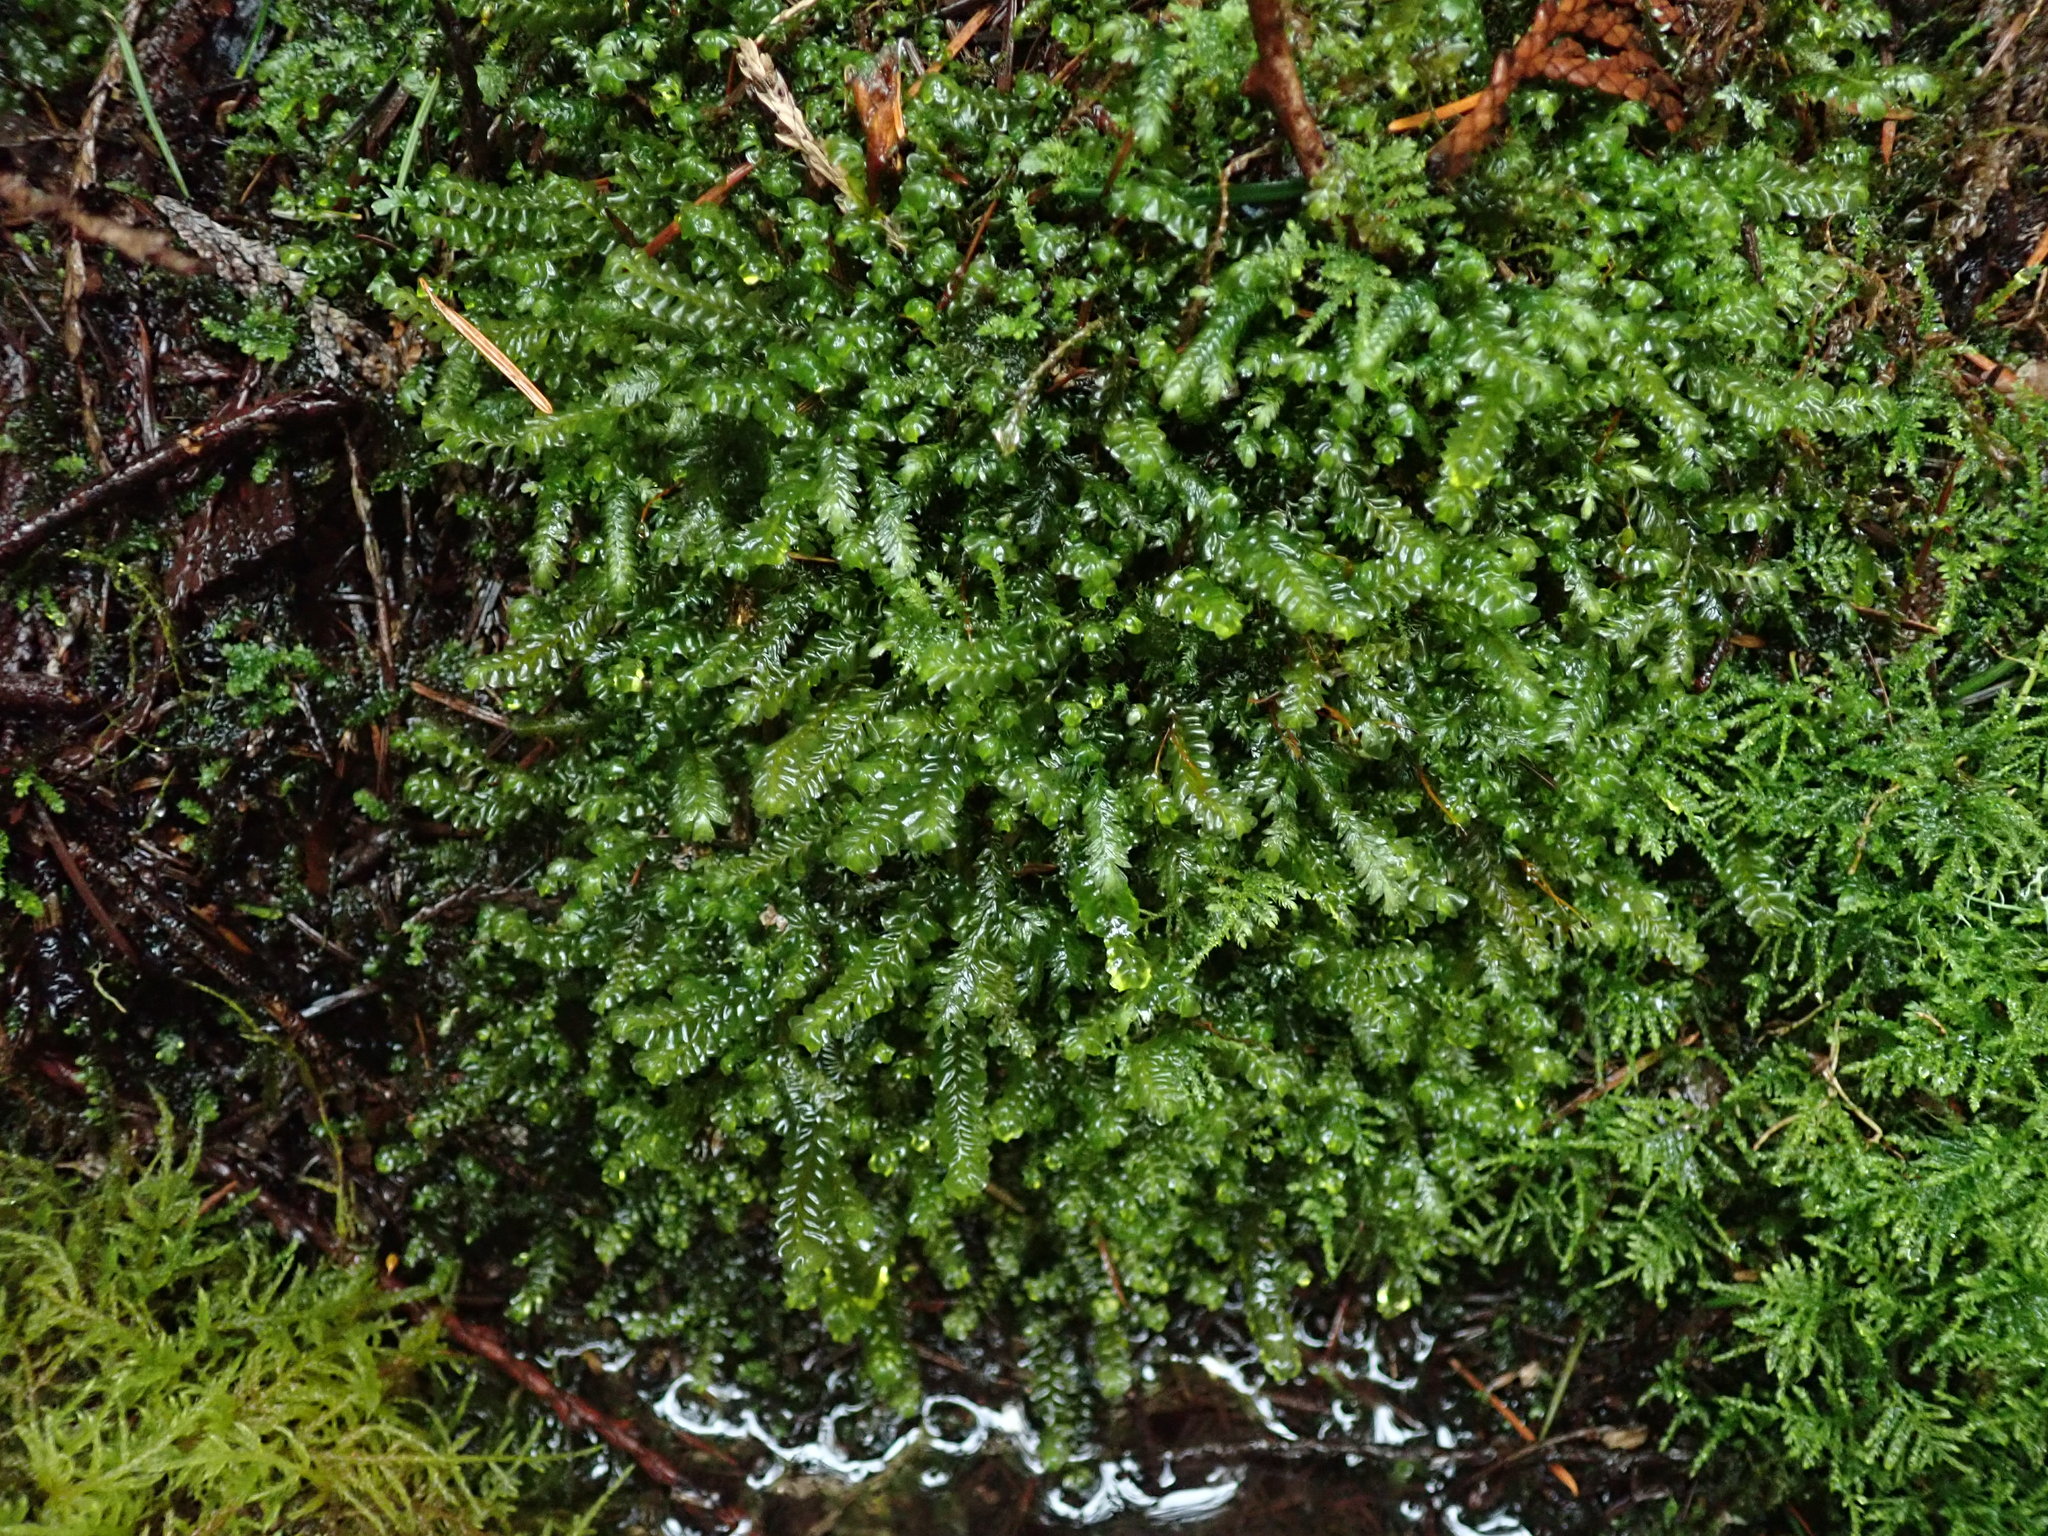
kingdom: Plantae
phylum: Marchantiophyta
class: Jungermanniopsida
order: Jungermanniales
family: Plagiochilaceae
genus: Plagiochila
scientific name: Plagiochila porelloides
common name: Lesser featherwort
